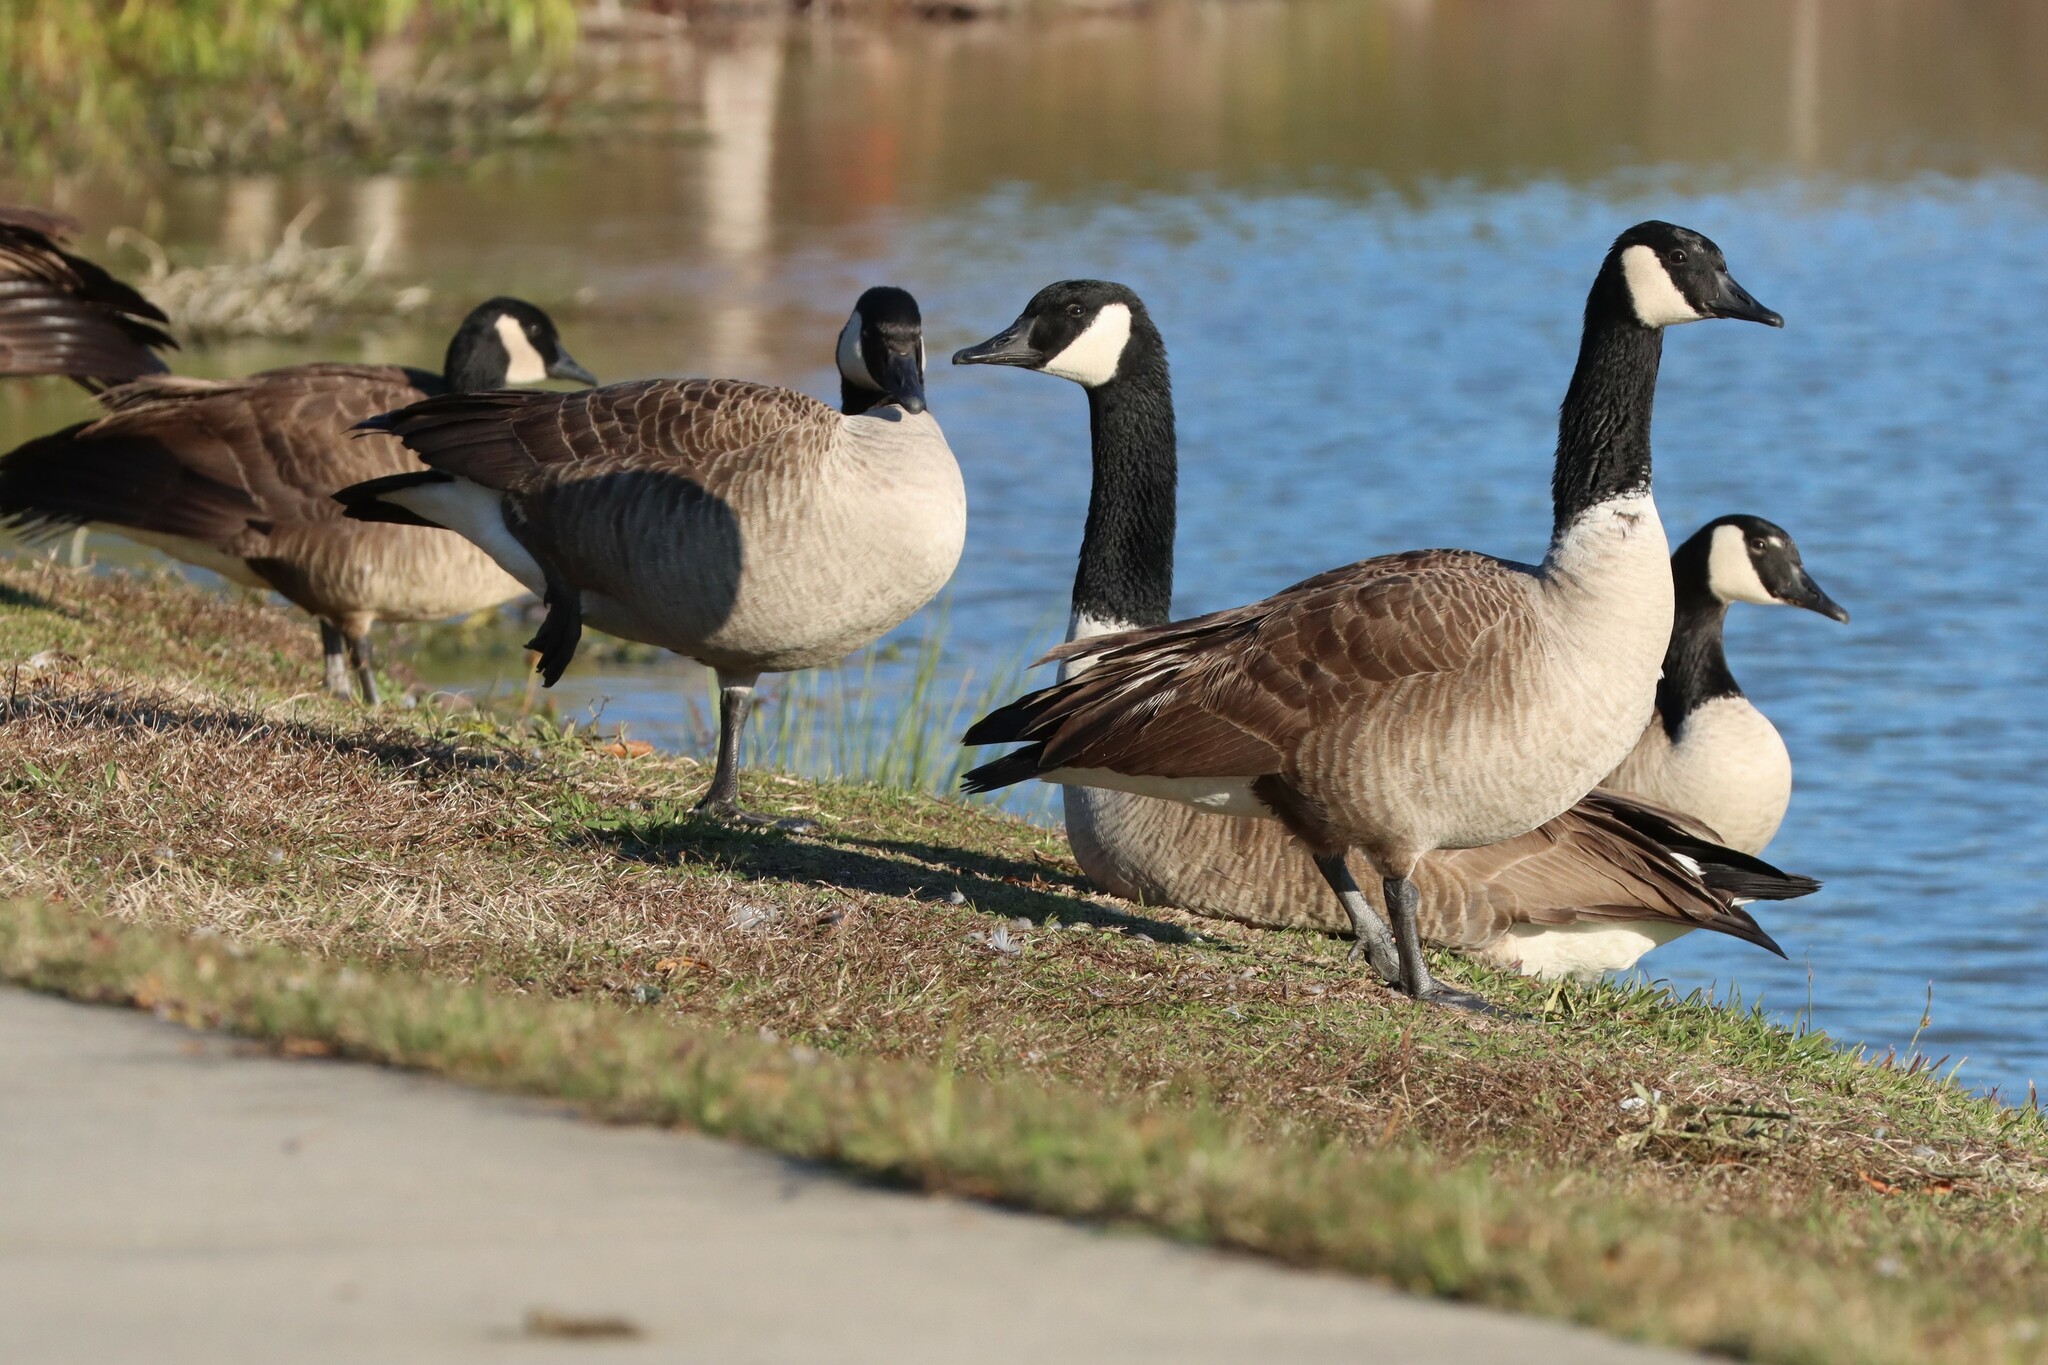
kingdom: Animalia
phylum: Chordata
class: Aves
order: Anseriformes
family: Anatidae
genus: Branta
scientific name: Branta canadensis
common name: Canada goose
